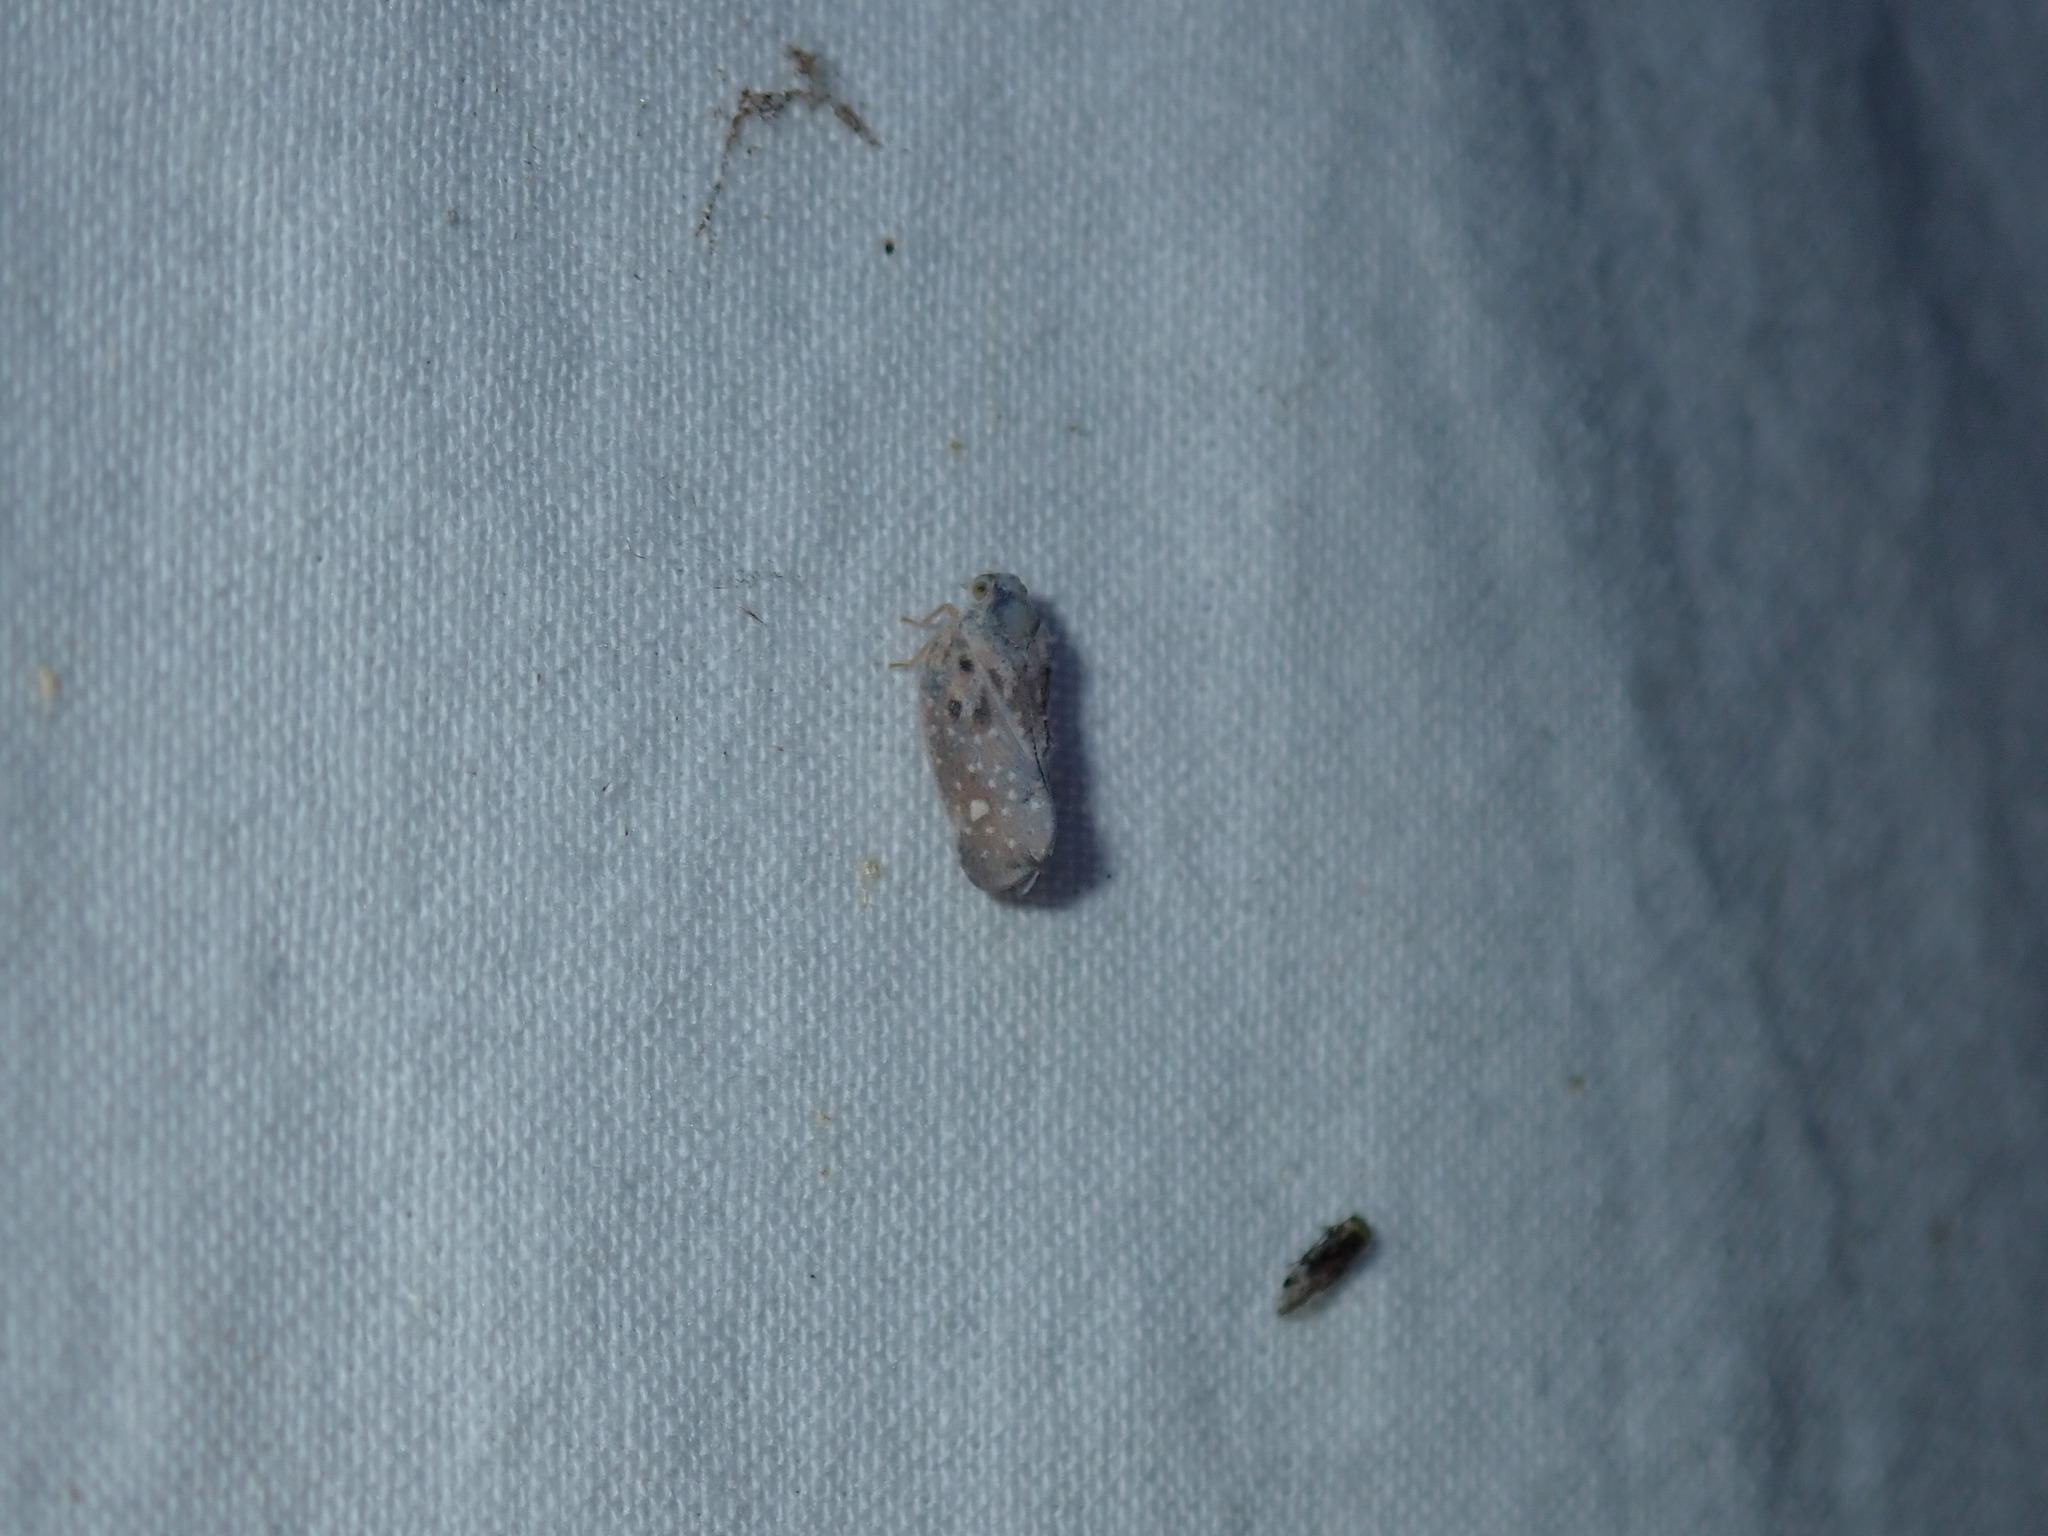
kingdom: Animalia
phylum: Arthropoda
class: Insecta
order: Hemiptera
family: Flatidae
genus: Metcalfa
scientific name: Metcalfa pruinosa
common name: Citrus flatid planthopper
